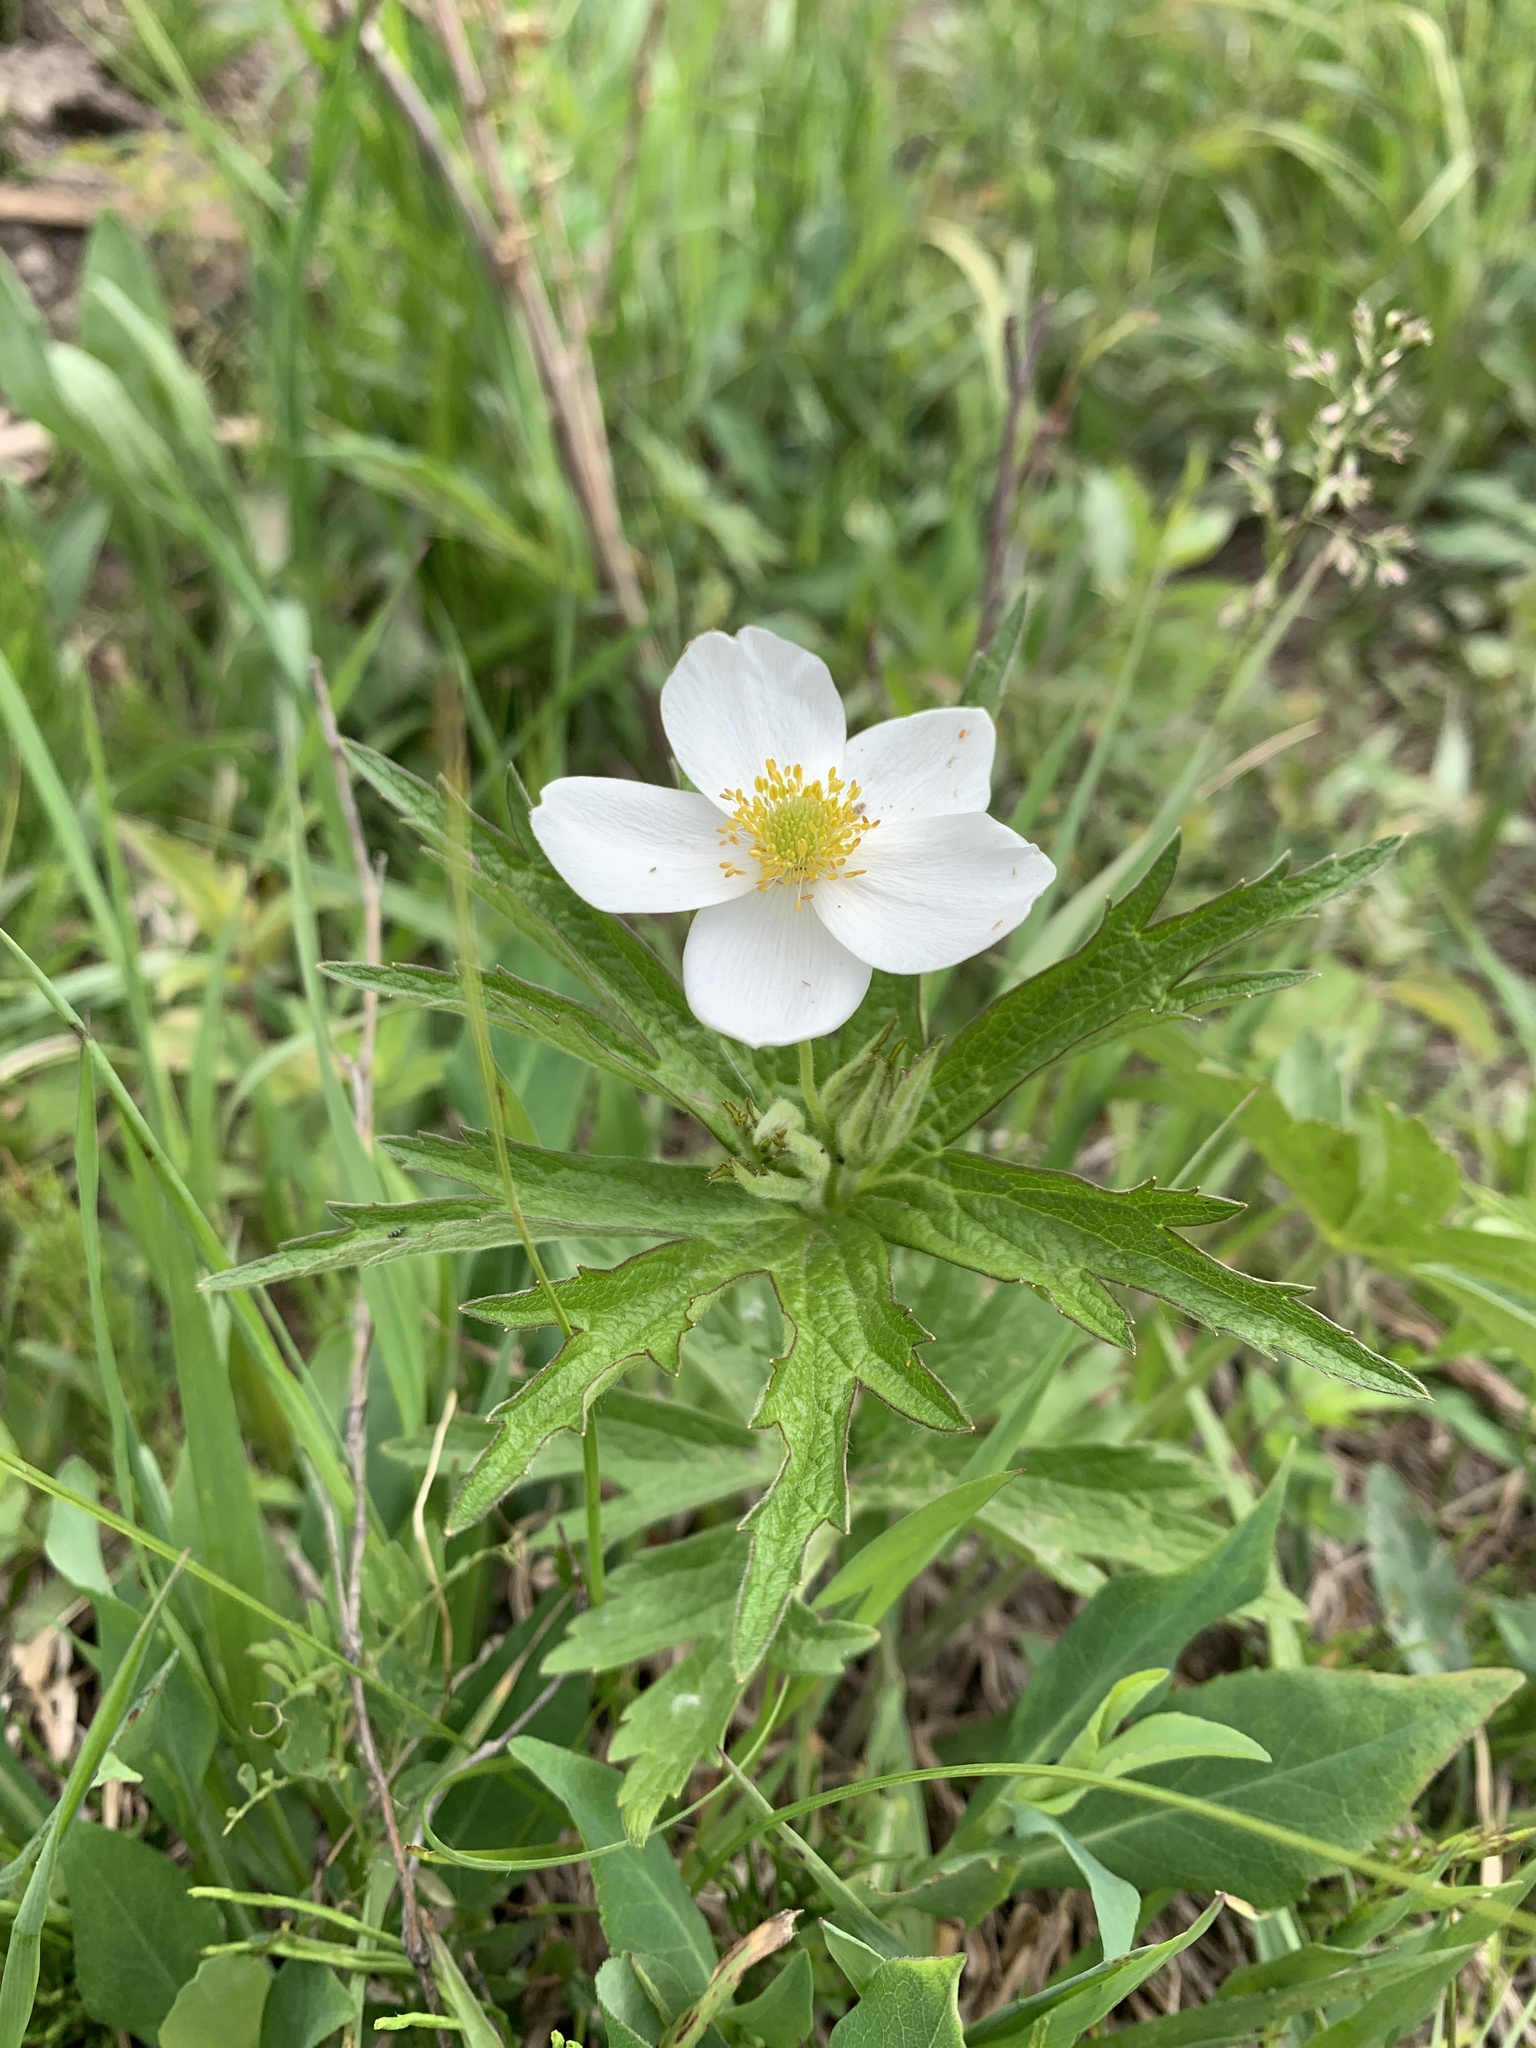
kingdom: Plantae
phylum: Tracheophyta
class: Magnoliopsida
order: Ranunculales
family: Ranunculaceae
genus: Anemonastrum
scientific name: Anemonastrum canadense
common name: Canada anemone
